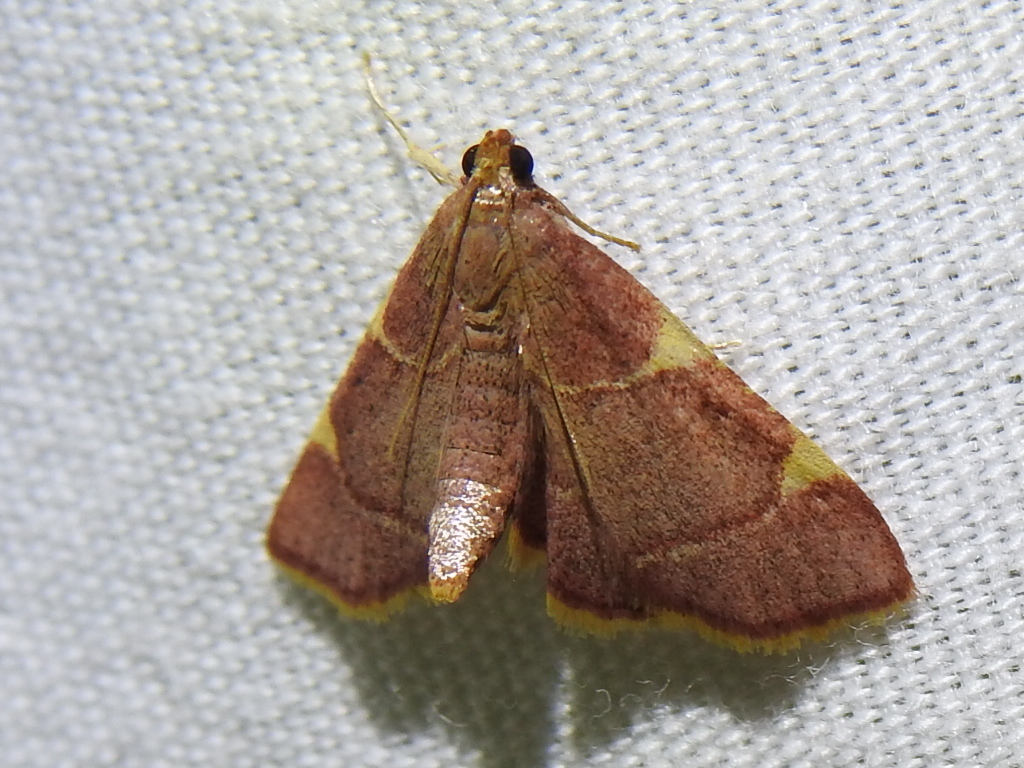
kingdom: Animalia
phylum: Arthropoda
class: Insecta
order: Lepidoptera
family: Pyralidae
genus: Hypsopygia
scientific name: Hypsopygia olinalis
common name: Yellow-fringed dolichomia moth
